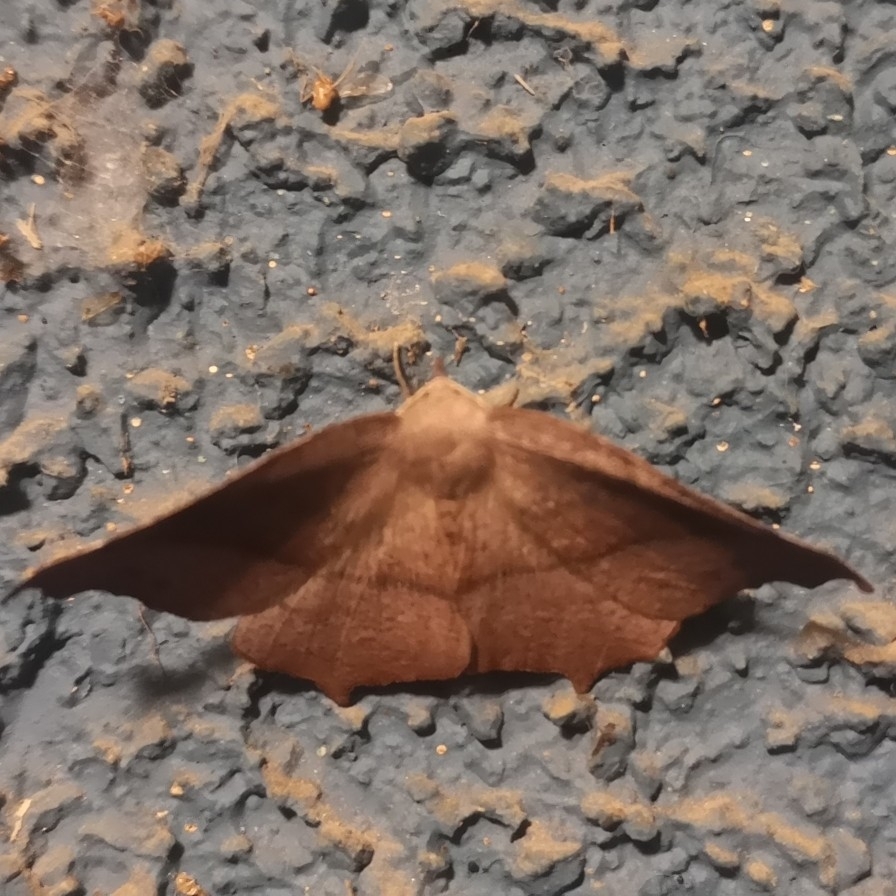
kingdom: Animalia
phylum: Arthropoda
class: Insecta
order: Lepidoptera
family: Geometridae
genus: Syncirsodes
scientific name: Syncirsodes primata
